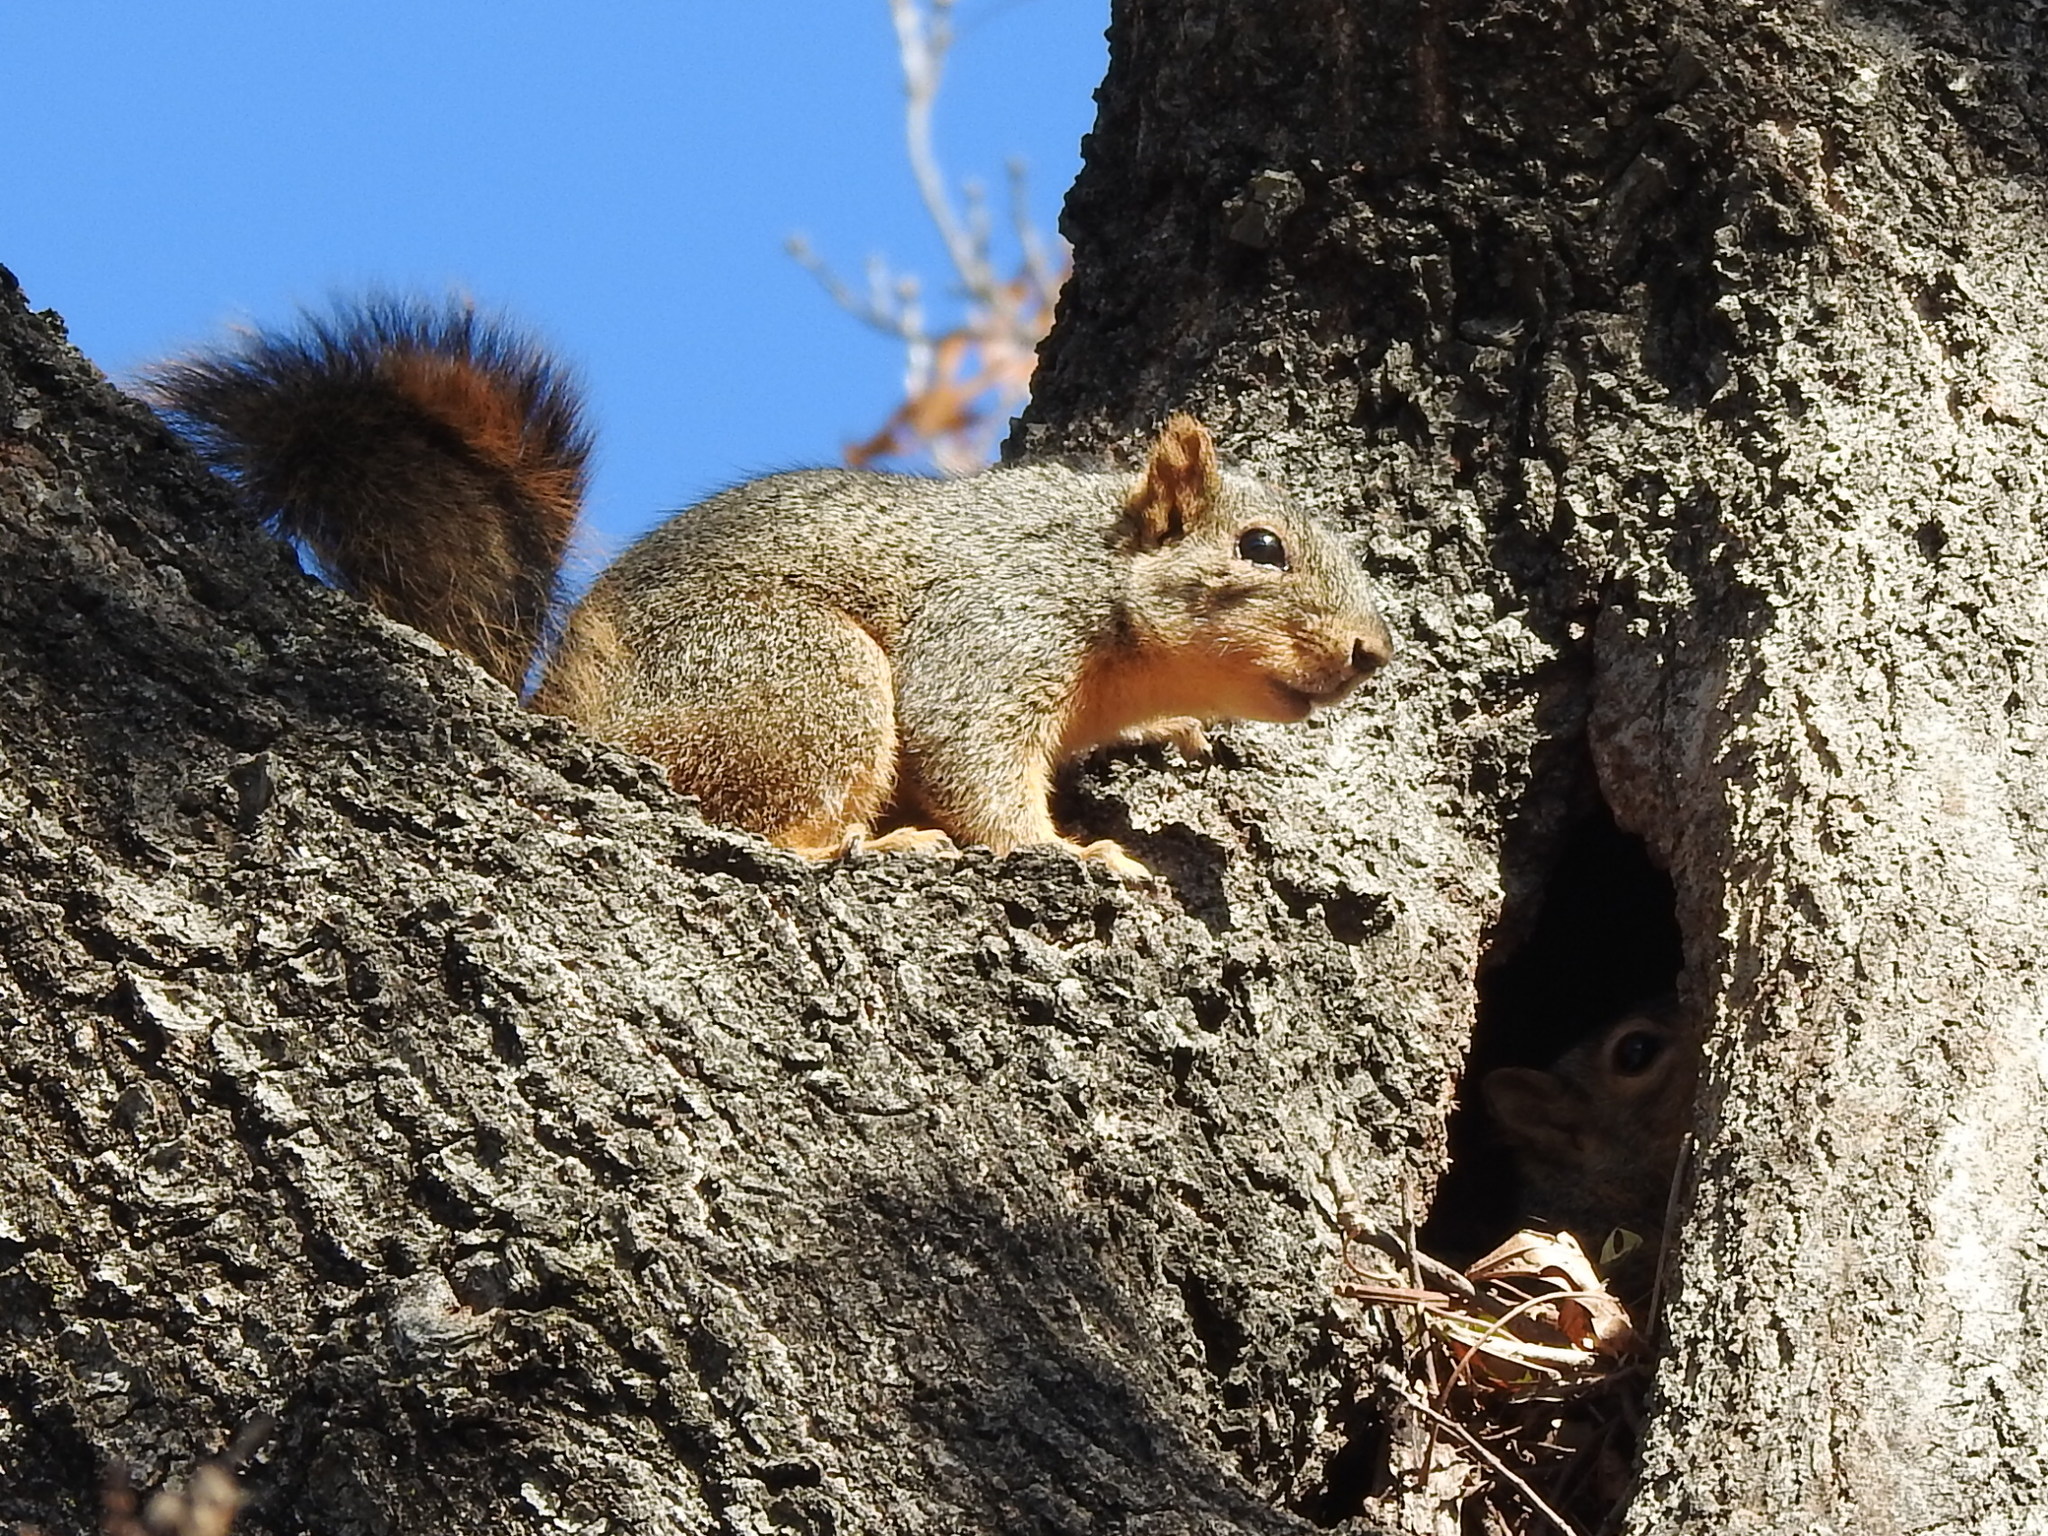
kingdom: Animalia
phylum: Chordata
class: Mammalia
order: Rodentia
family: Sciuridae
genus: Sciurus
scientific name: Sciurus niger
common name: Fox squirrel
